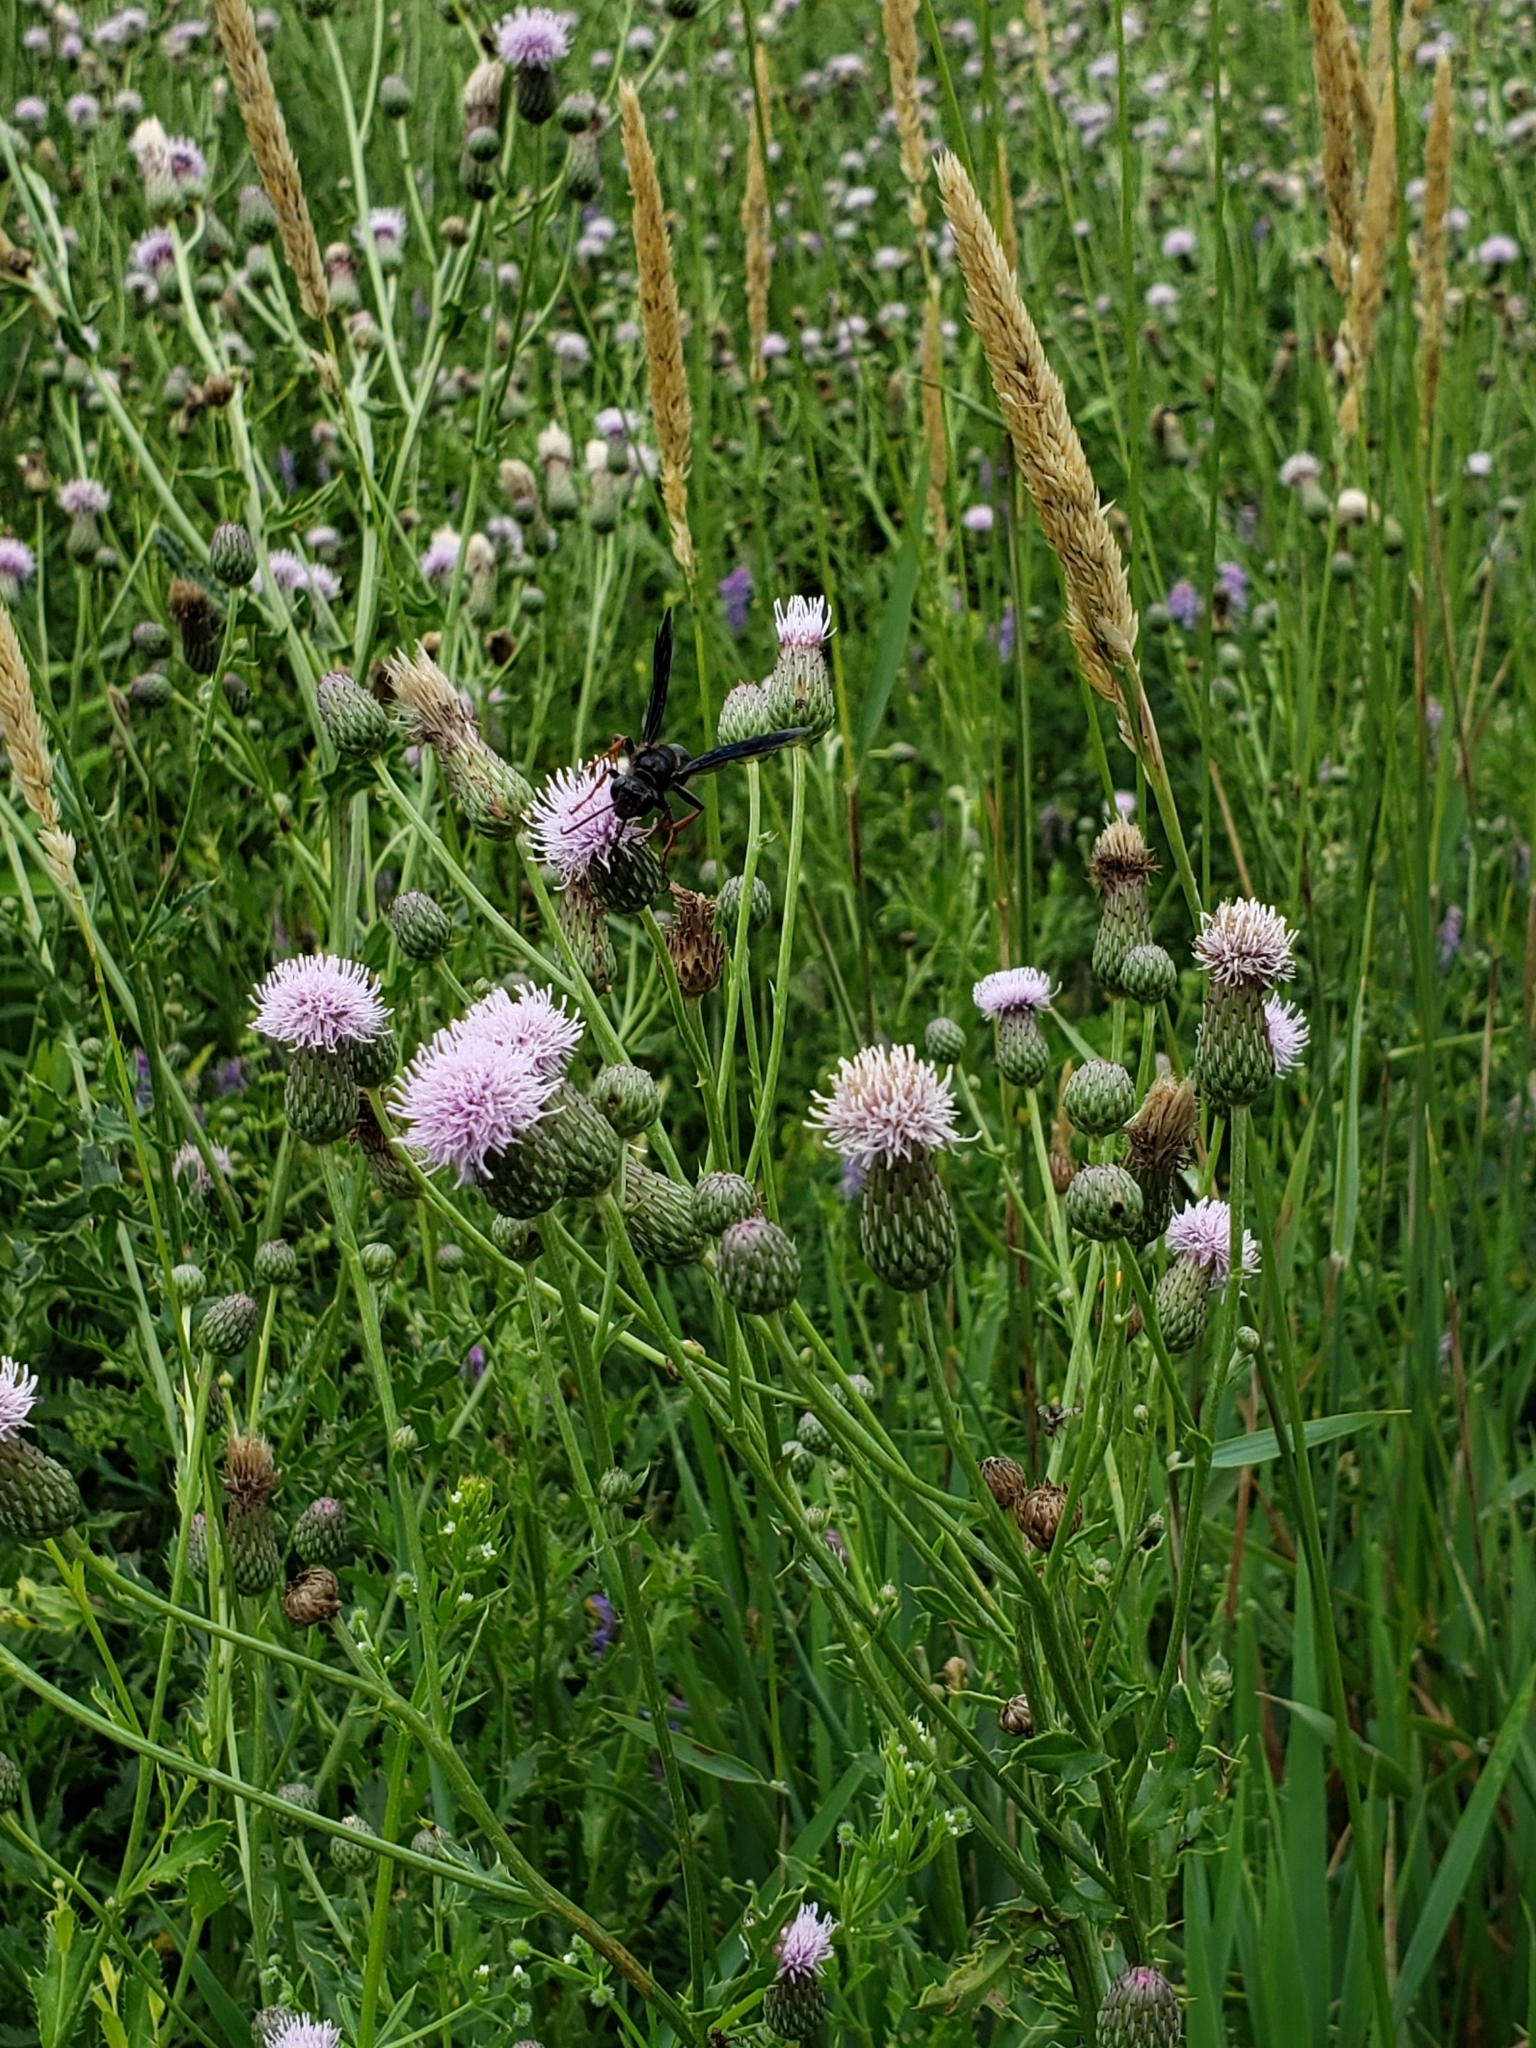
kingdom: Animalia
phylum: Arthropoda
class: Insecta
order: Hymenoptera
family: Sphecidae
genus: Isodontia
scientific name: Isodontia auripes
